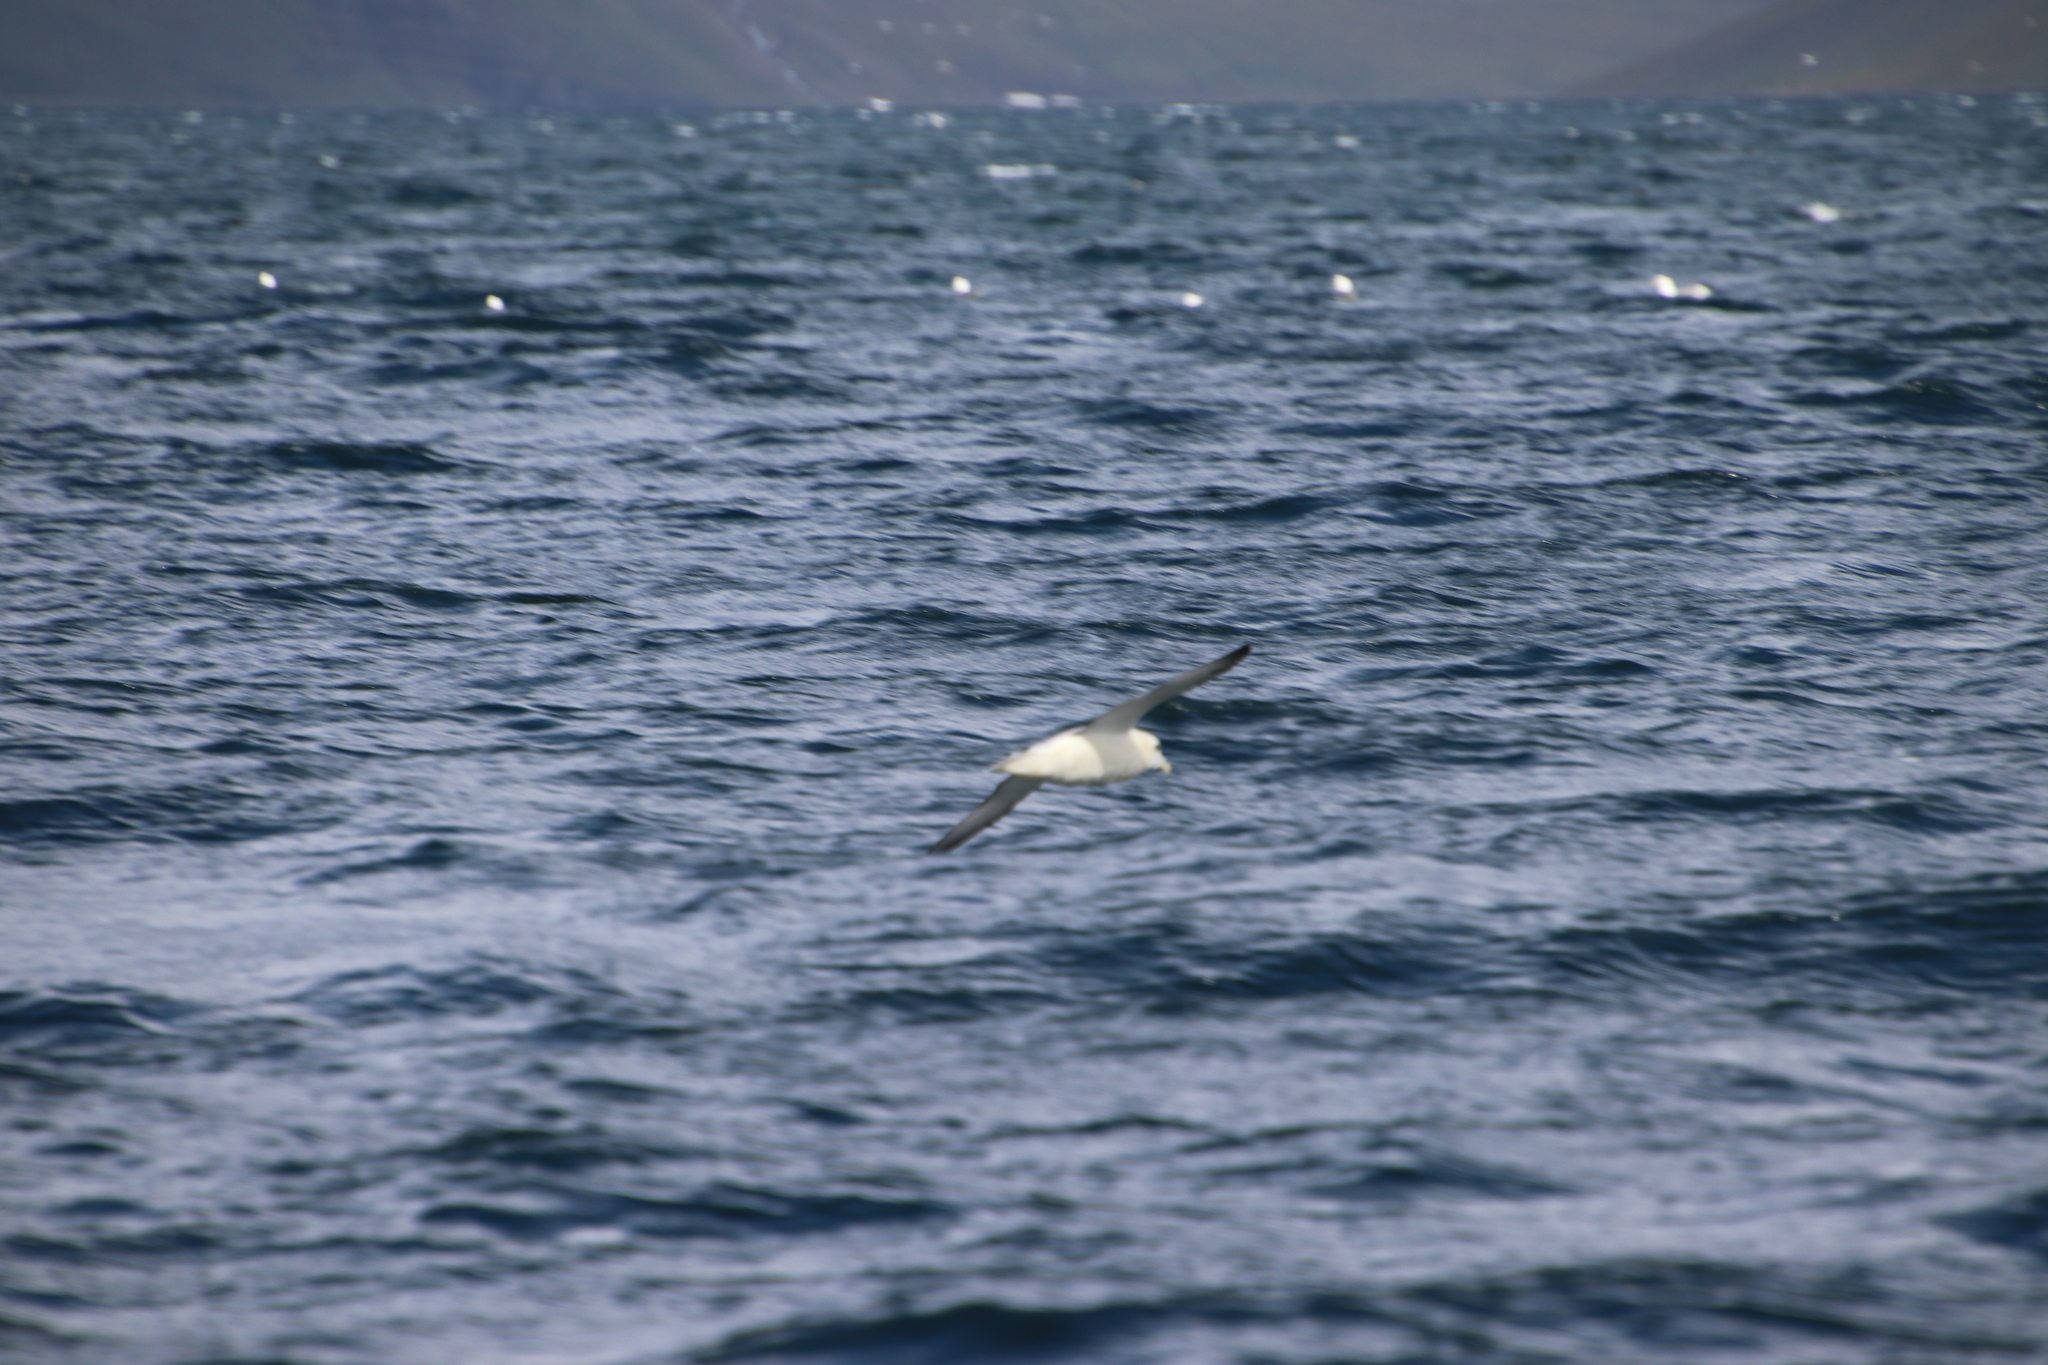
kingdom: Animalia
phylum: Chordata
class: Aves
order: Procellariiformes
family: Procellariidae
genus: Fulmarus
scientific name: Fulmarus glacialis
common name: Northern fulmar
